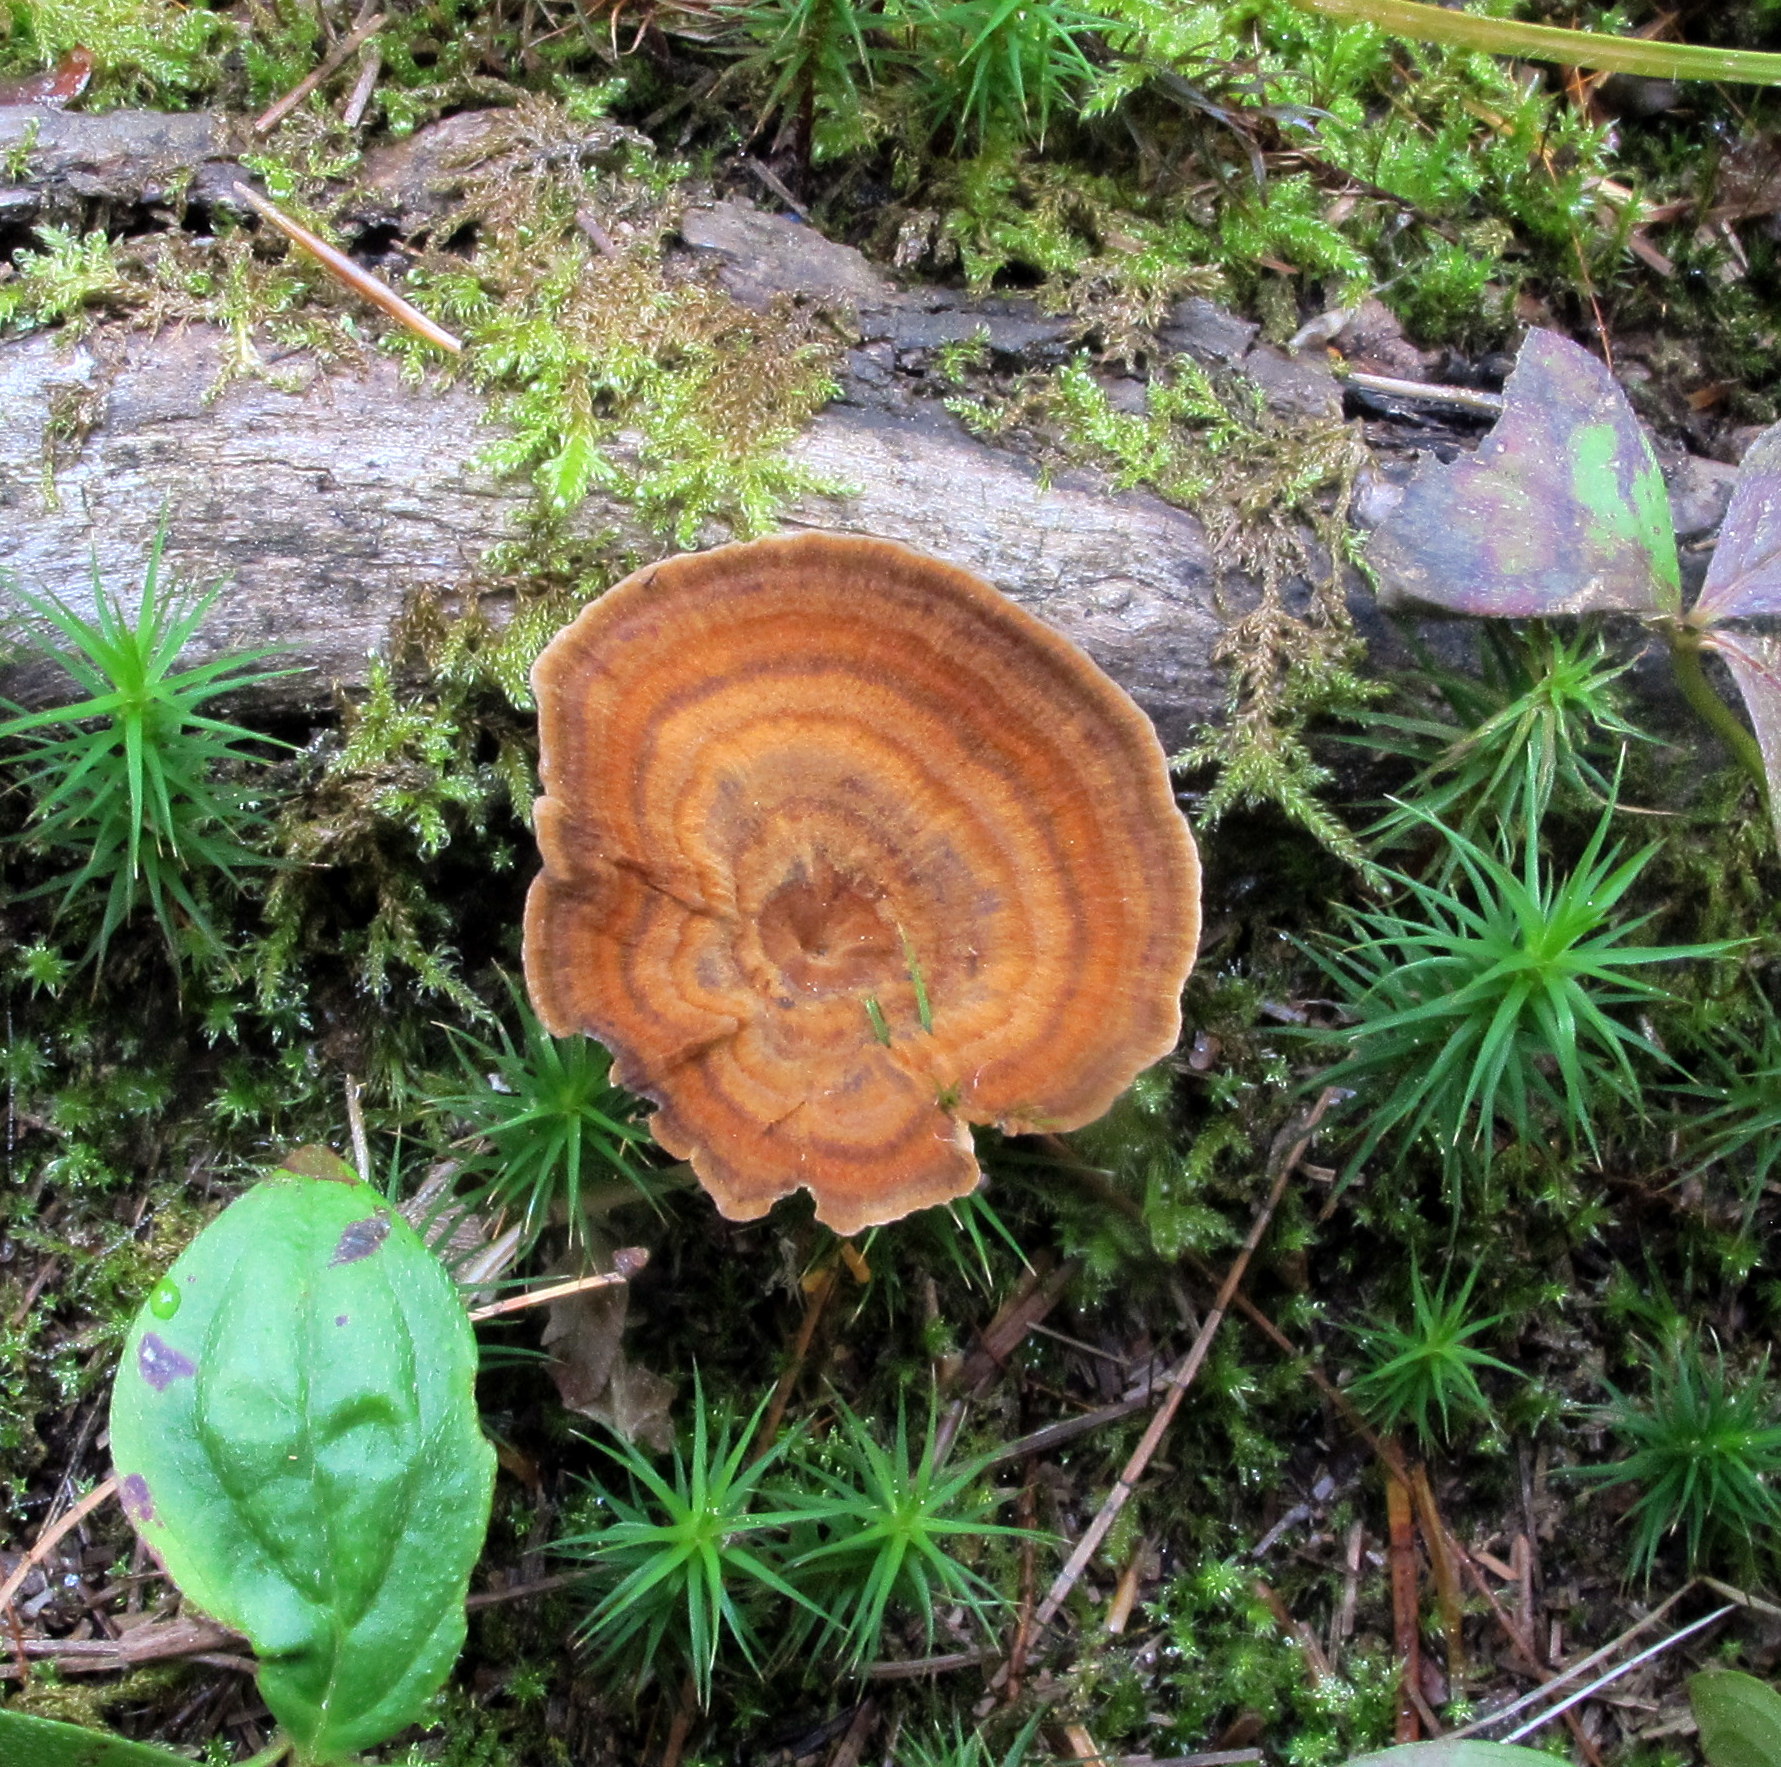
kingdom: Fungi
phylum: Basidiomycota
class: Agaricomycetes
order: Hymenochaetales
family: Hymenochaetaceae
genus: Coltricia
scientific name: Coltricia perennis
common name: Tiger's eye
